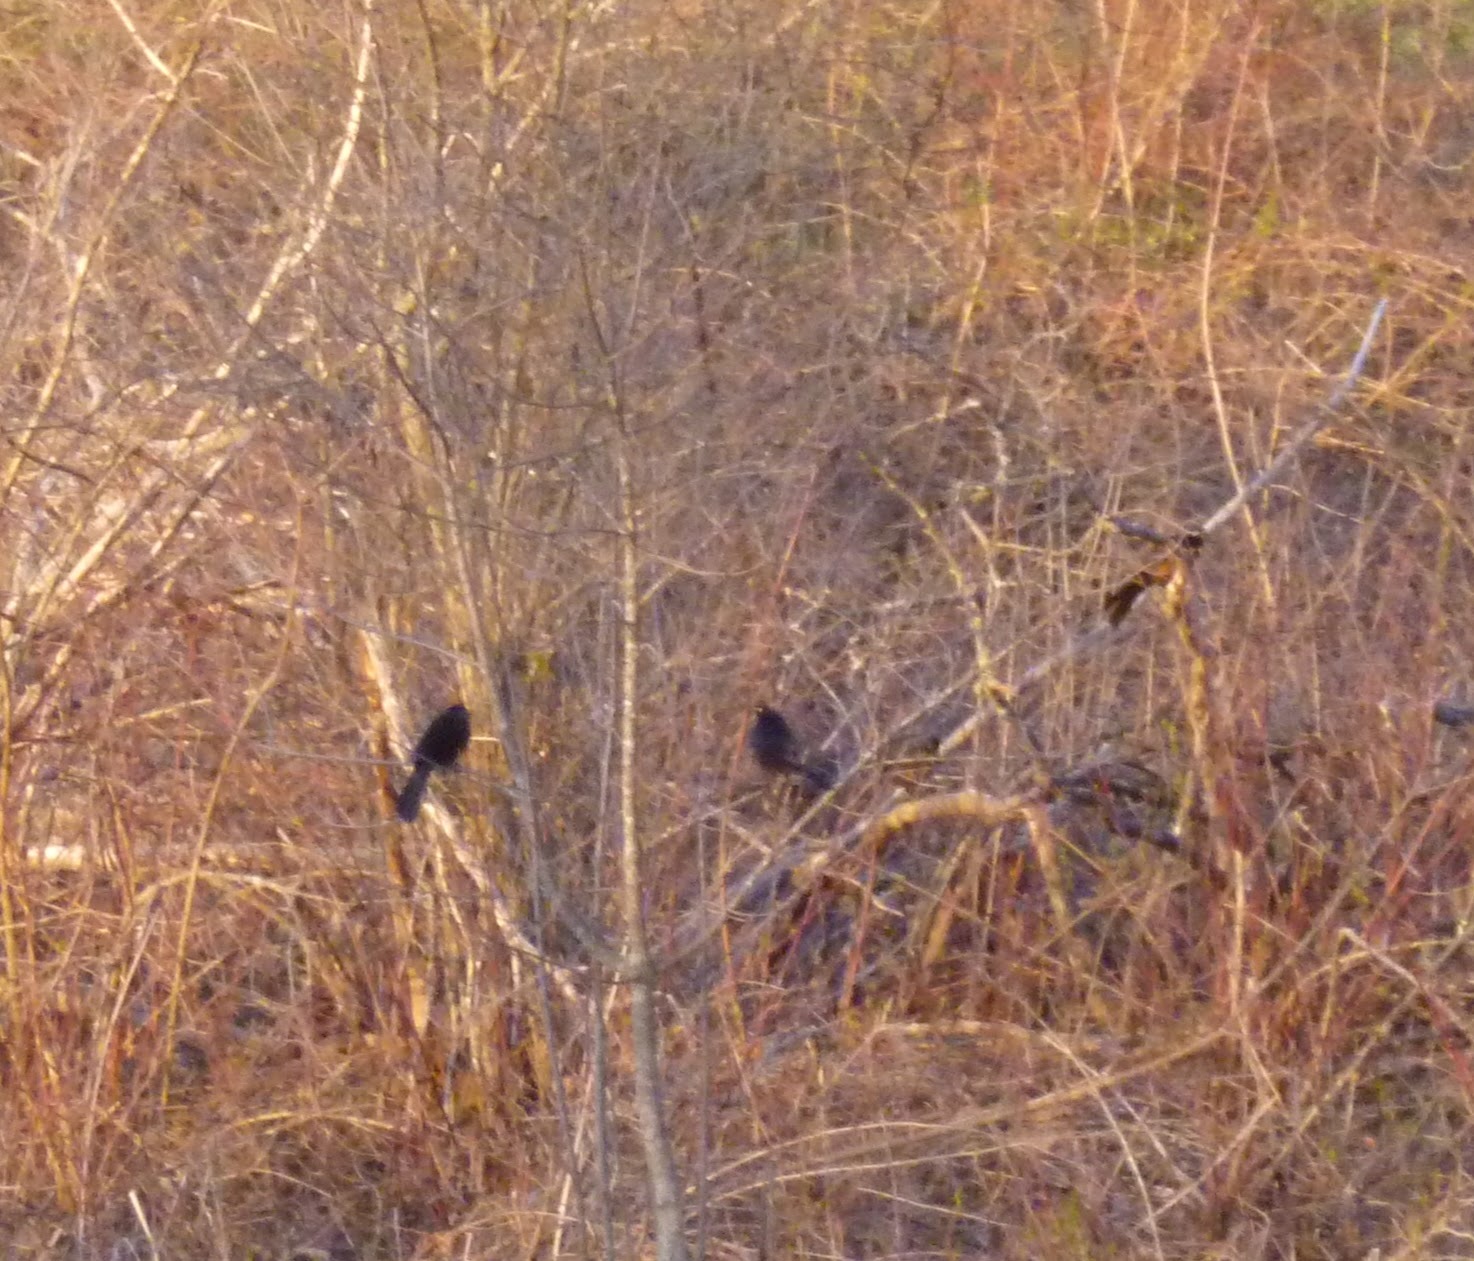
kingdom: Animalia
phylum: Chordata
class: Aves
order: Passeriformes
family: Icteridae
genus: Quiscalus
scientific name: Quiscalus quiscula
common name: Common grackle
